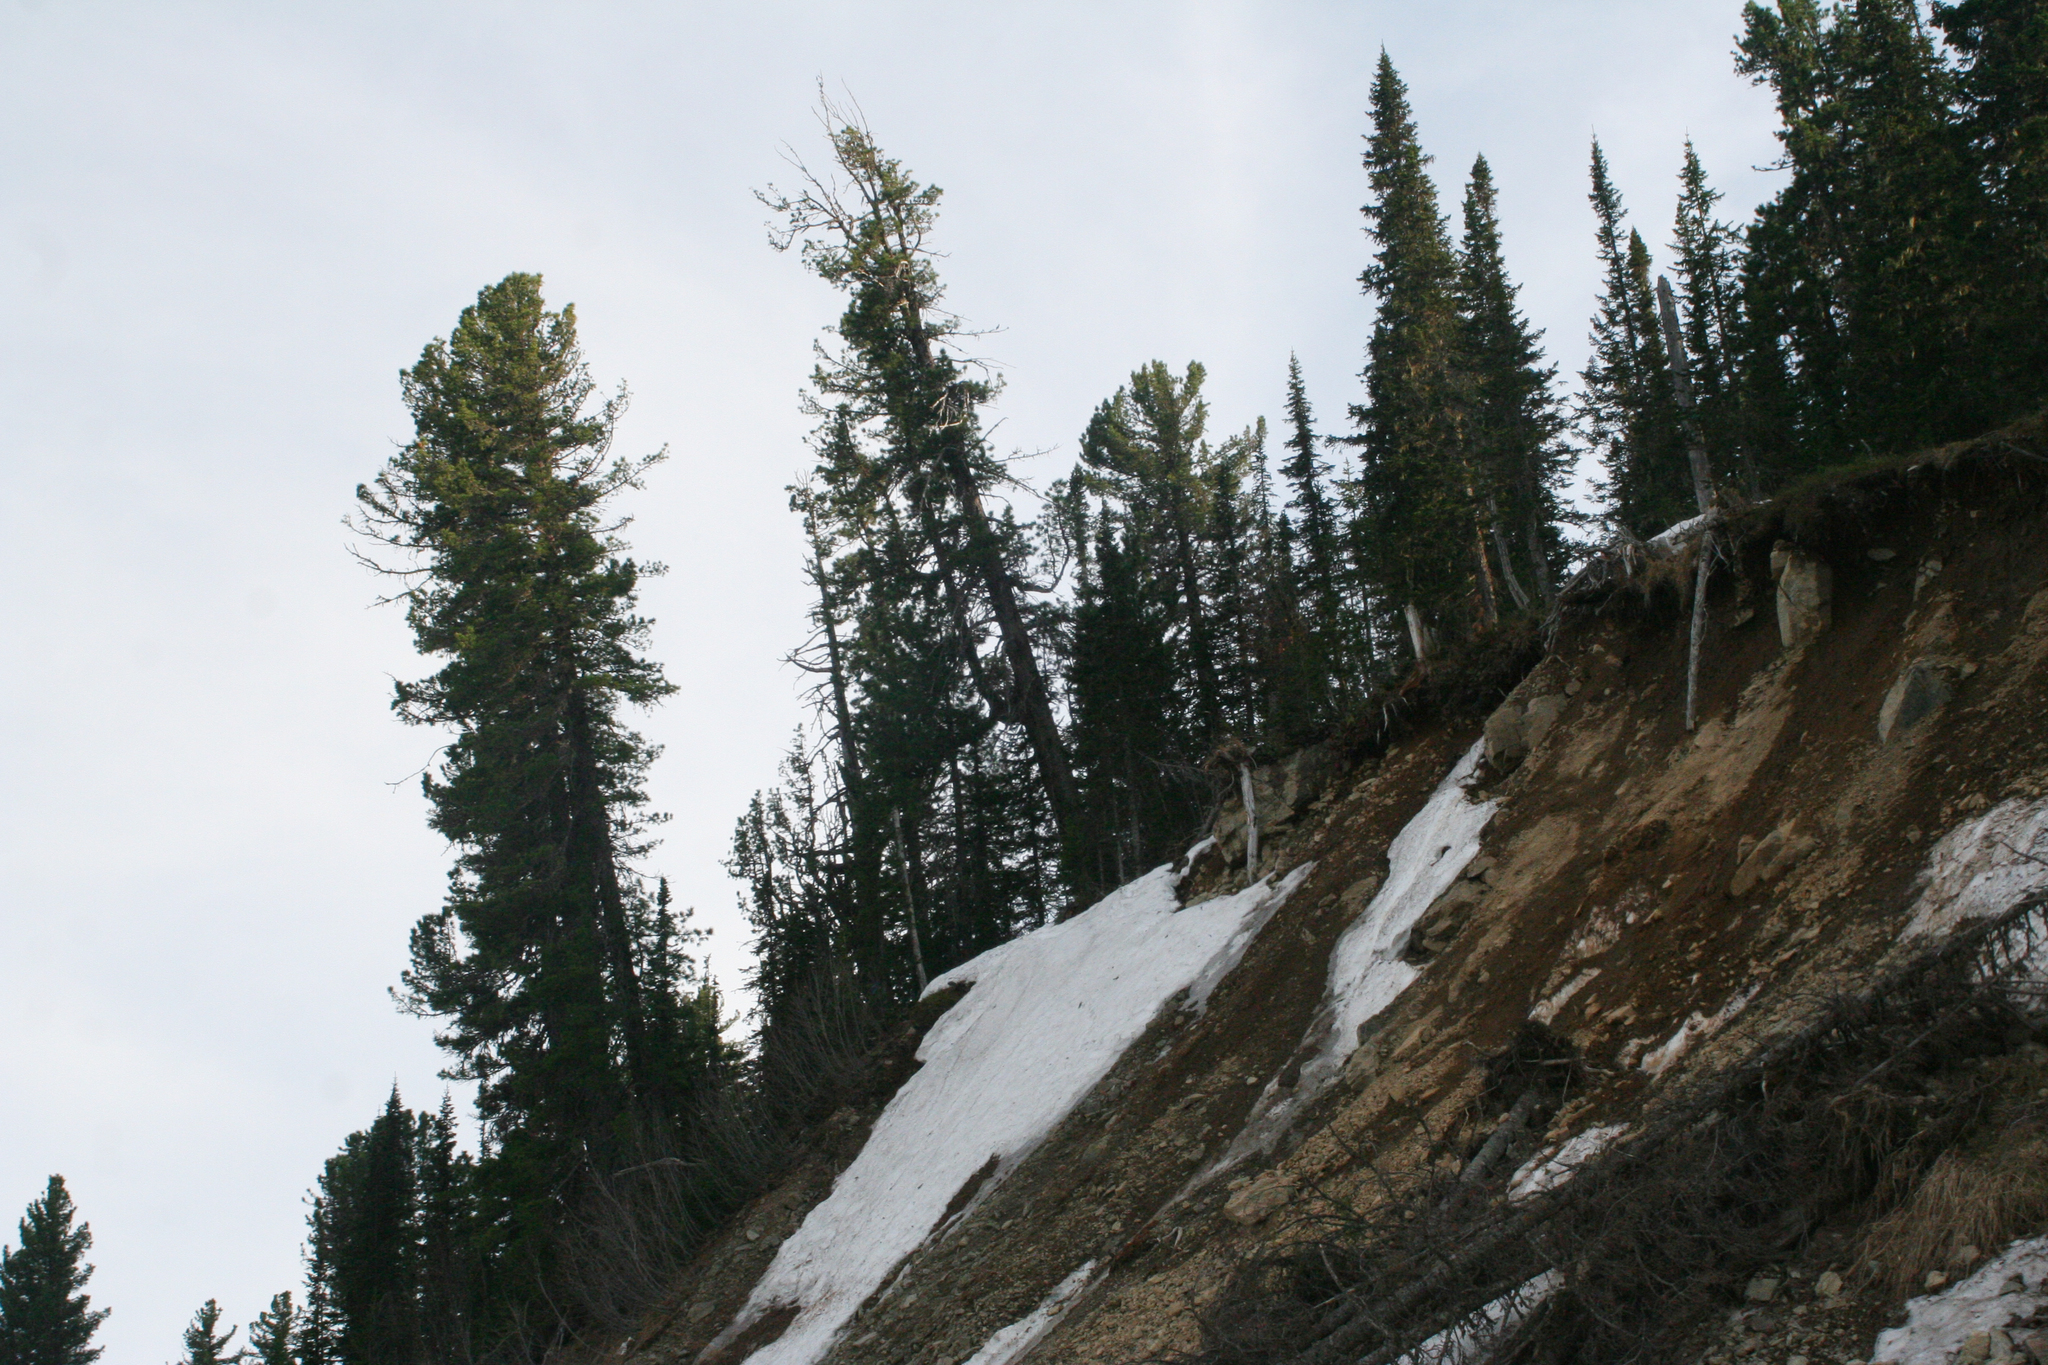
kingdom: Plantae
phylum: Tracheophyta
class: Pinopsida
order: Pinales
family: Pinaceae
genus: Abies
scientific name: Abies sibirica
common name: Siberian fir
